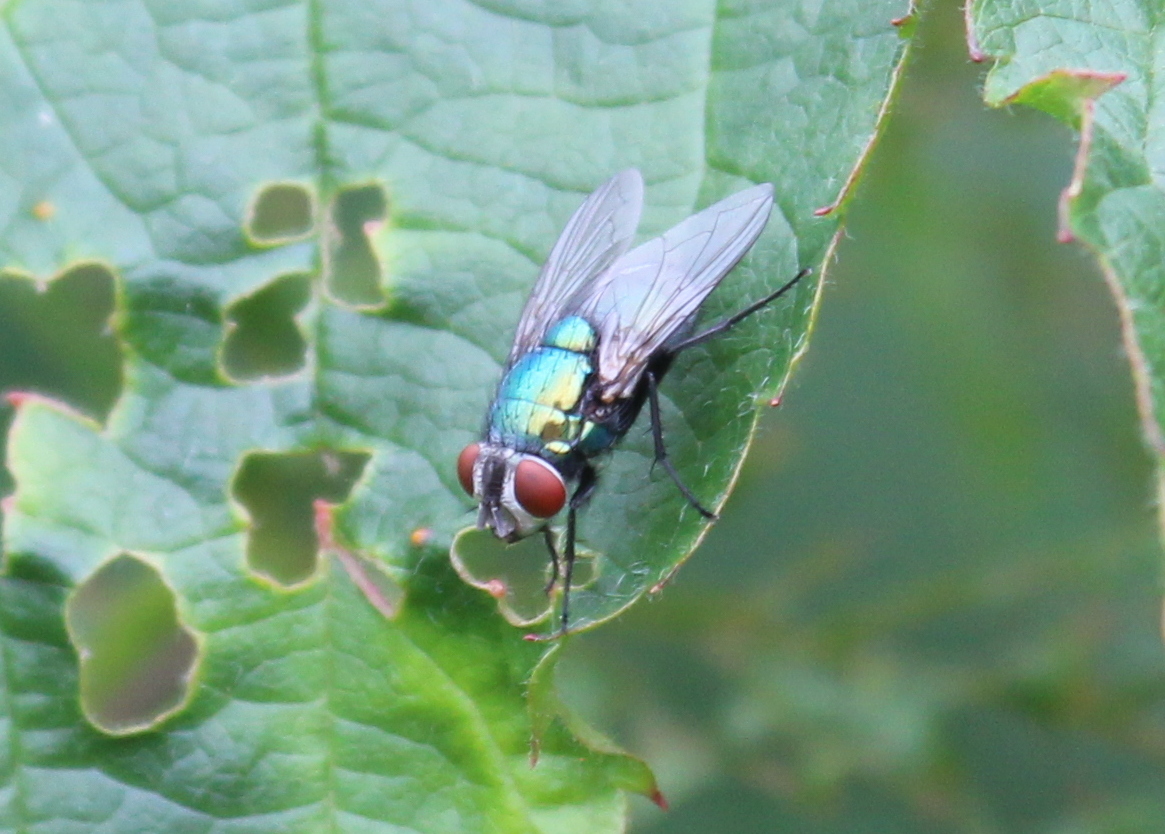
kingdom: Animalia
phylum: Arthropoda
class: Insecta
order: Diptera
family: Calliphoridae
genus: Lucilia
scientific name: Lucilia sericata
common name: Blow fly
